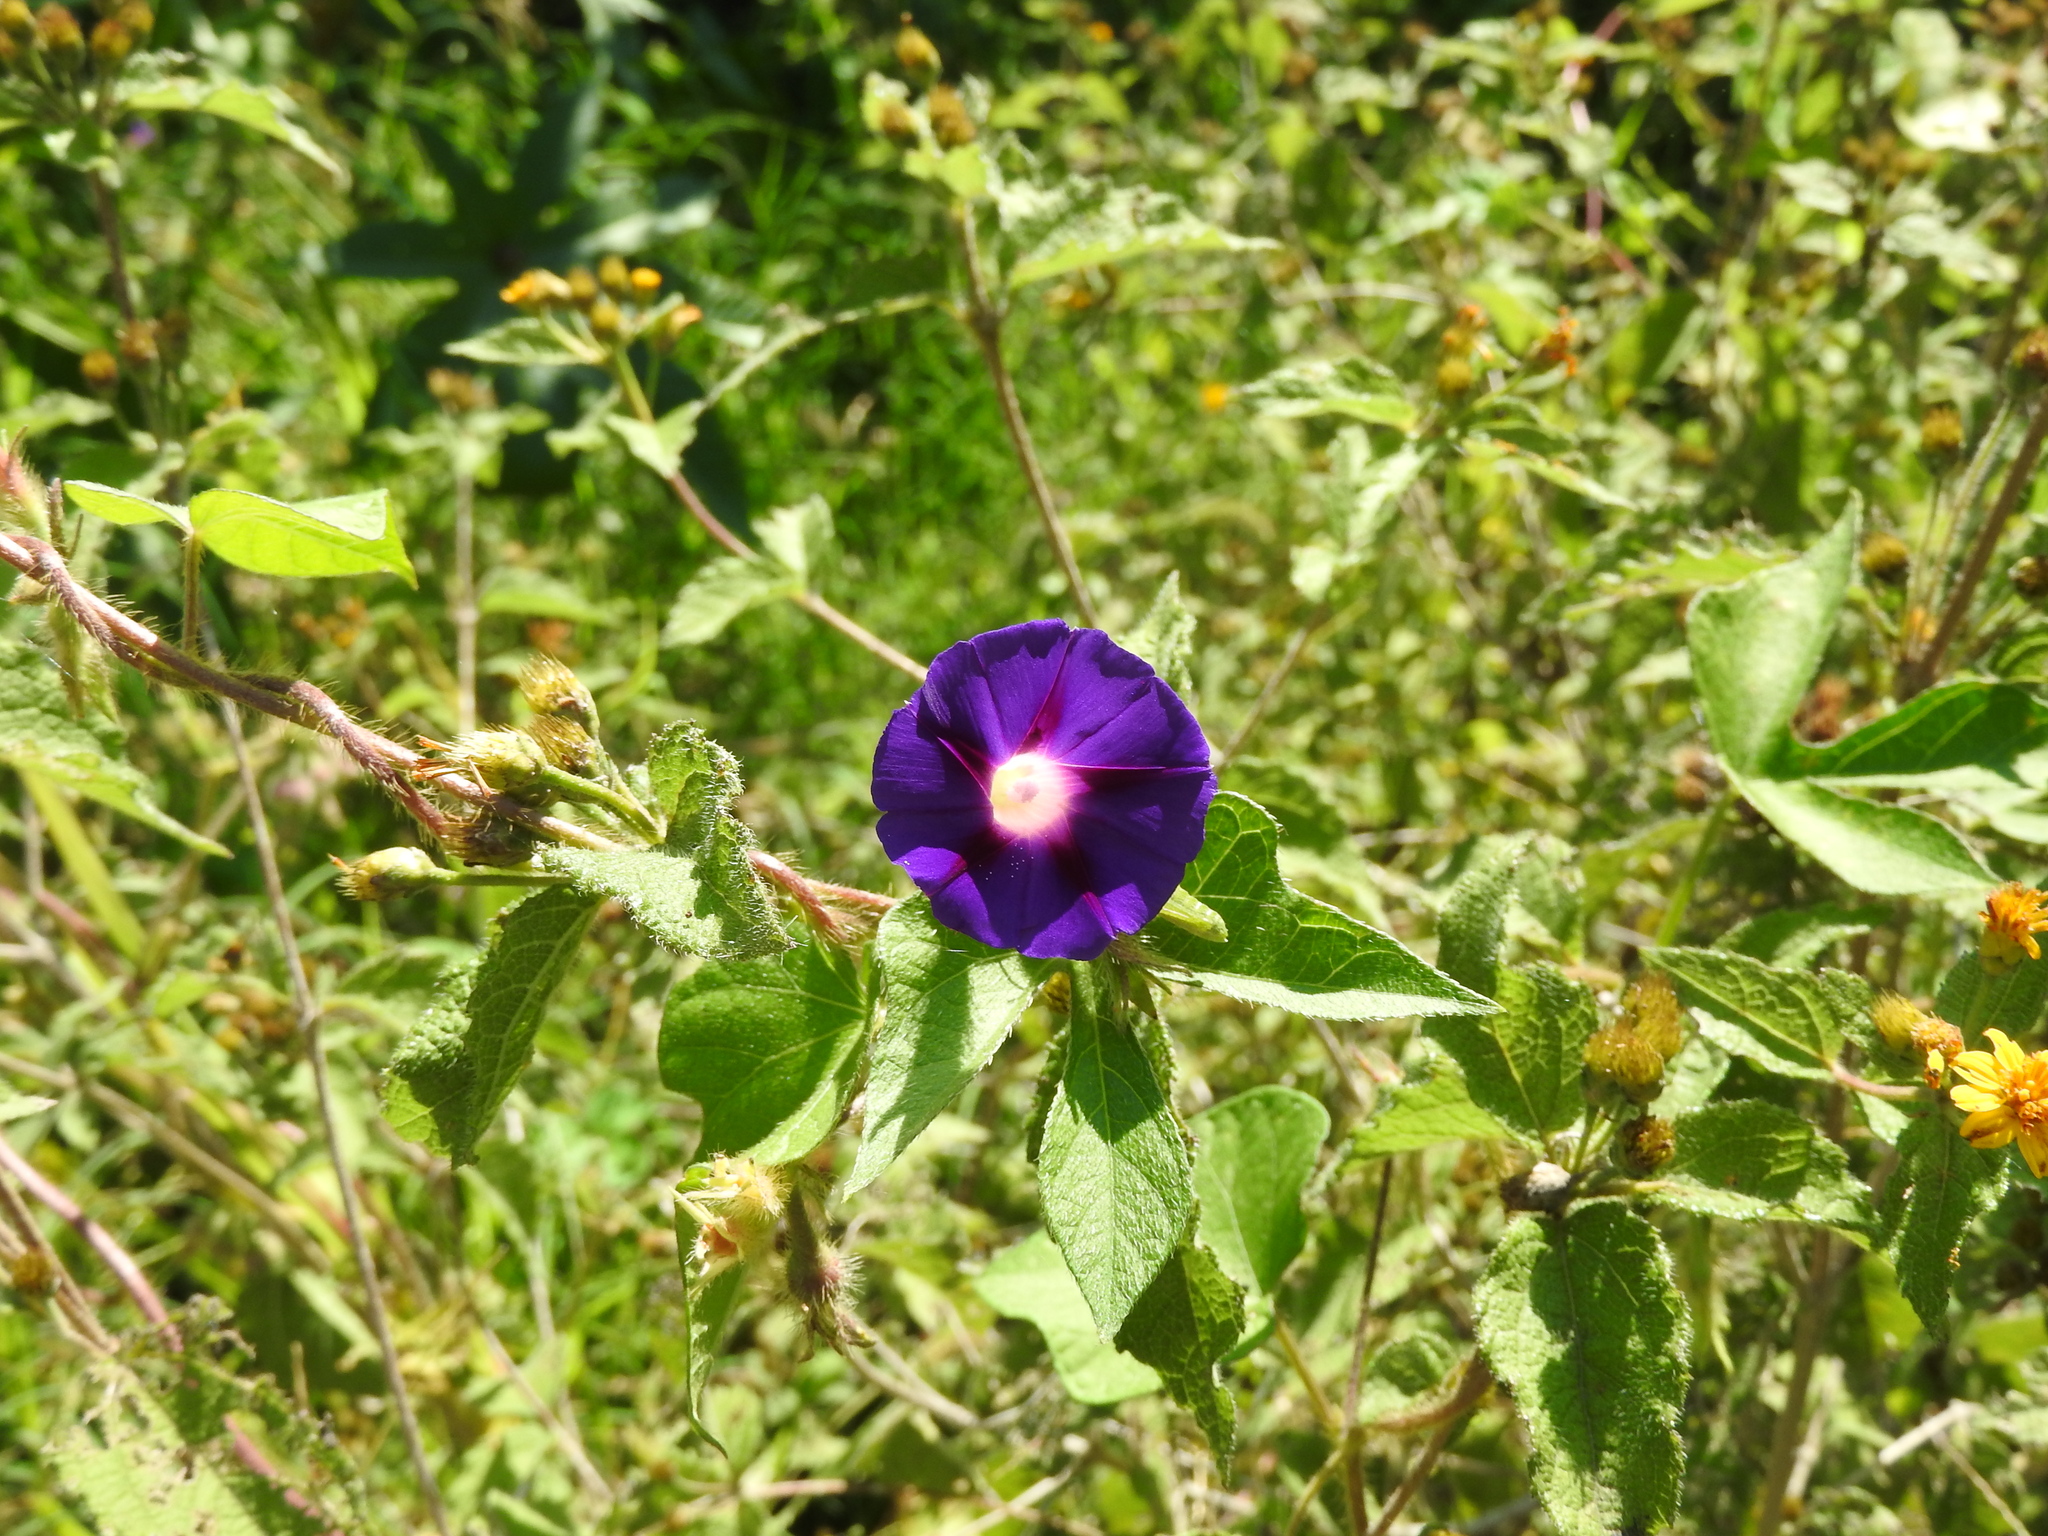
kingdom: Plantae
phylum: Tracheophyta
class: Magnoliopsida
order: Solanales
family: Convolvulaceae
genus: Ipomoea
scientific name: Ipomoea purpurea
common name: Common morning-glory
